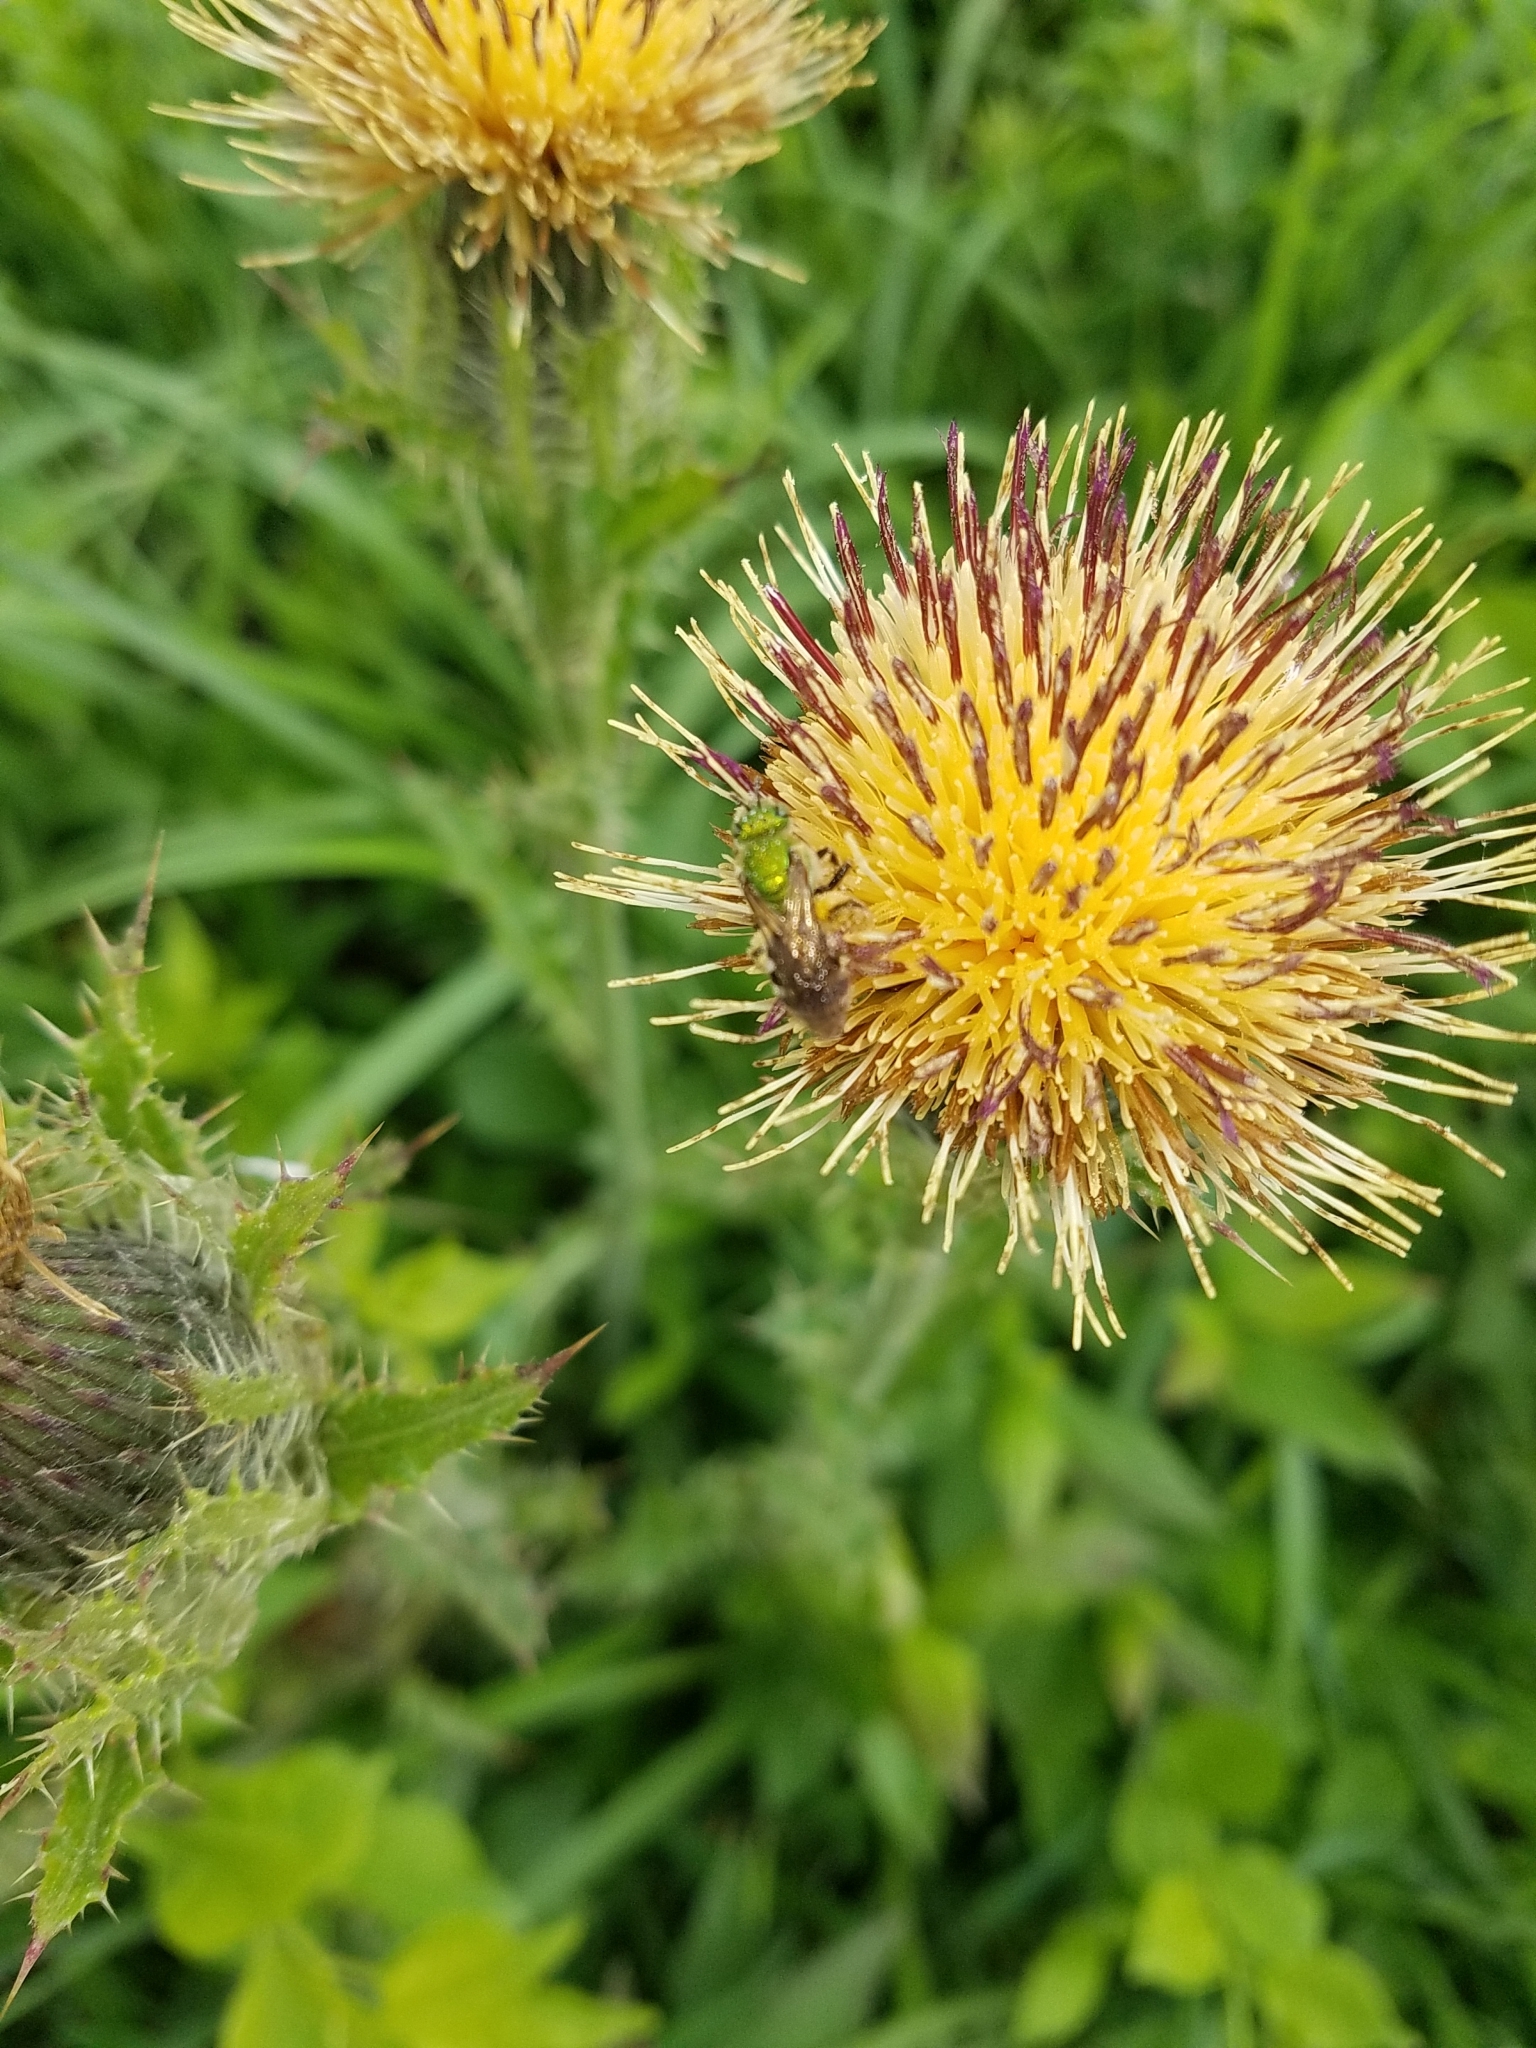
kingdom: Plantae
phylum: Tracheophyta
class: Magnoliopsida
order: Asterales
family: Asteraceae
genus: Cirsium
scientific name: Cirsium horridulum
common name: Bristly thistle
